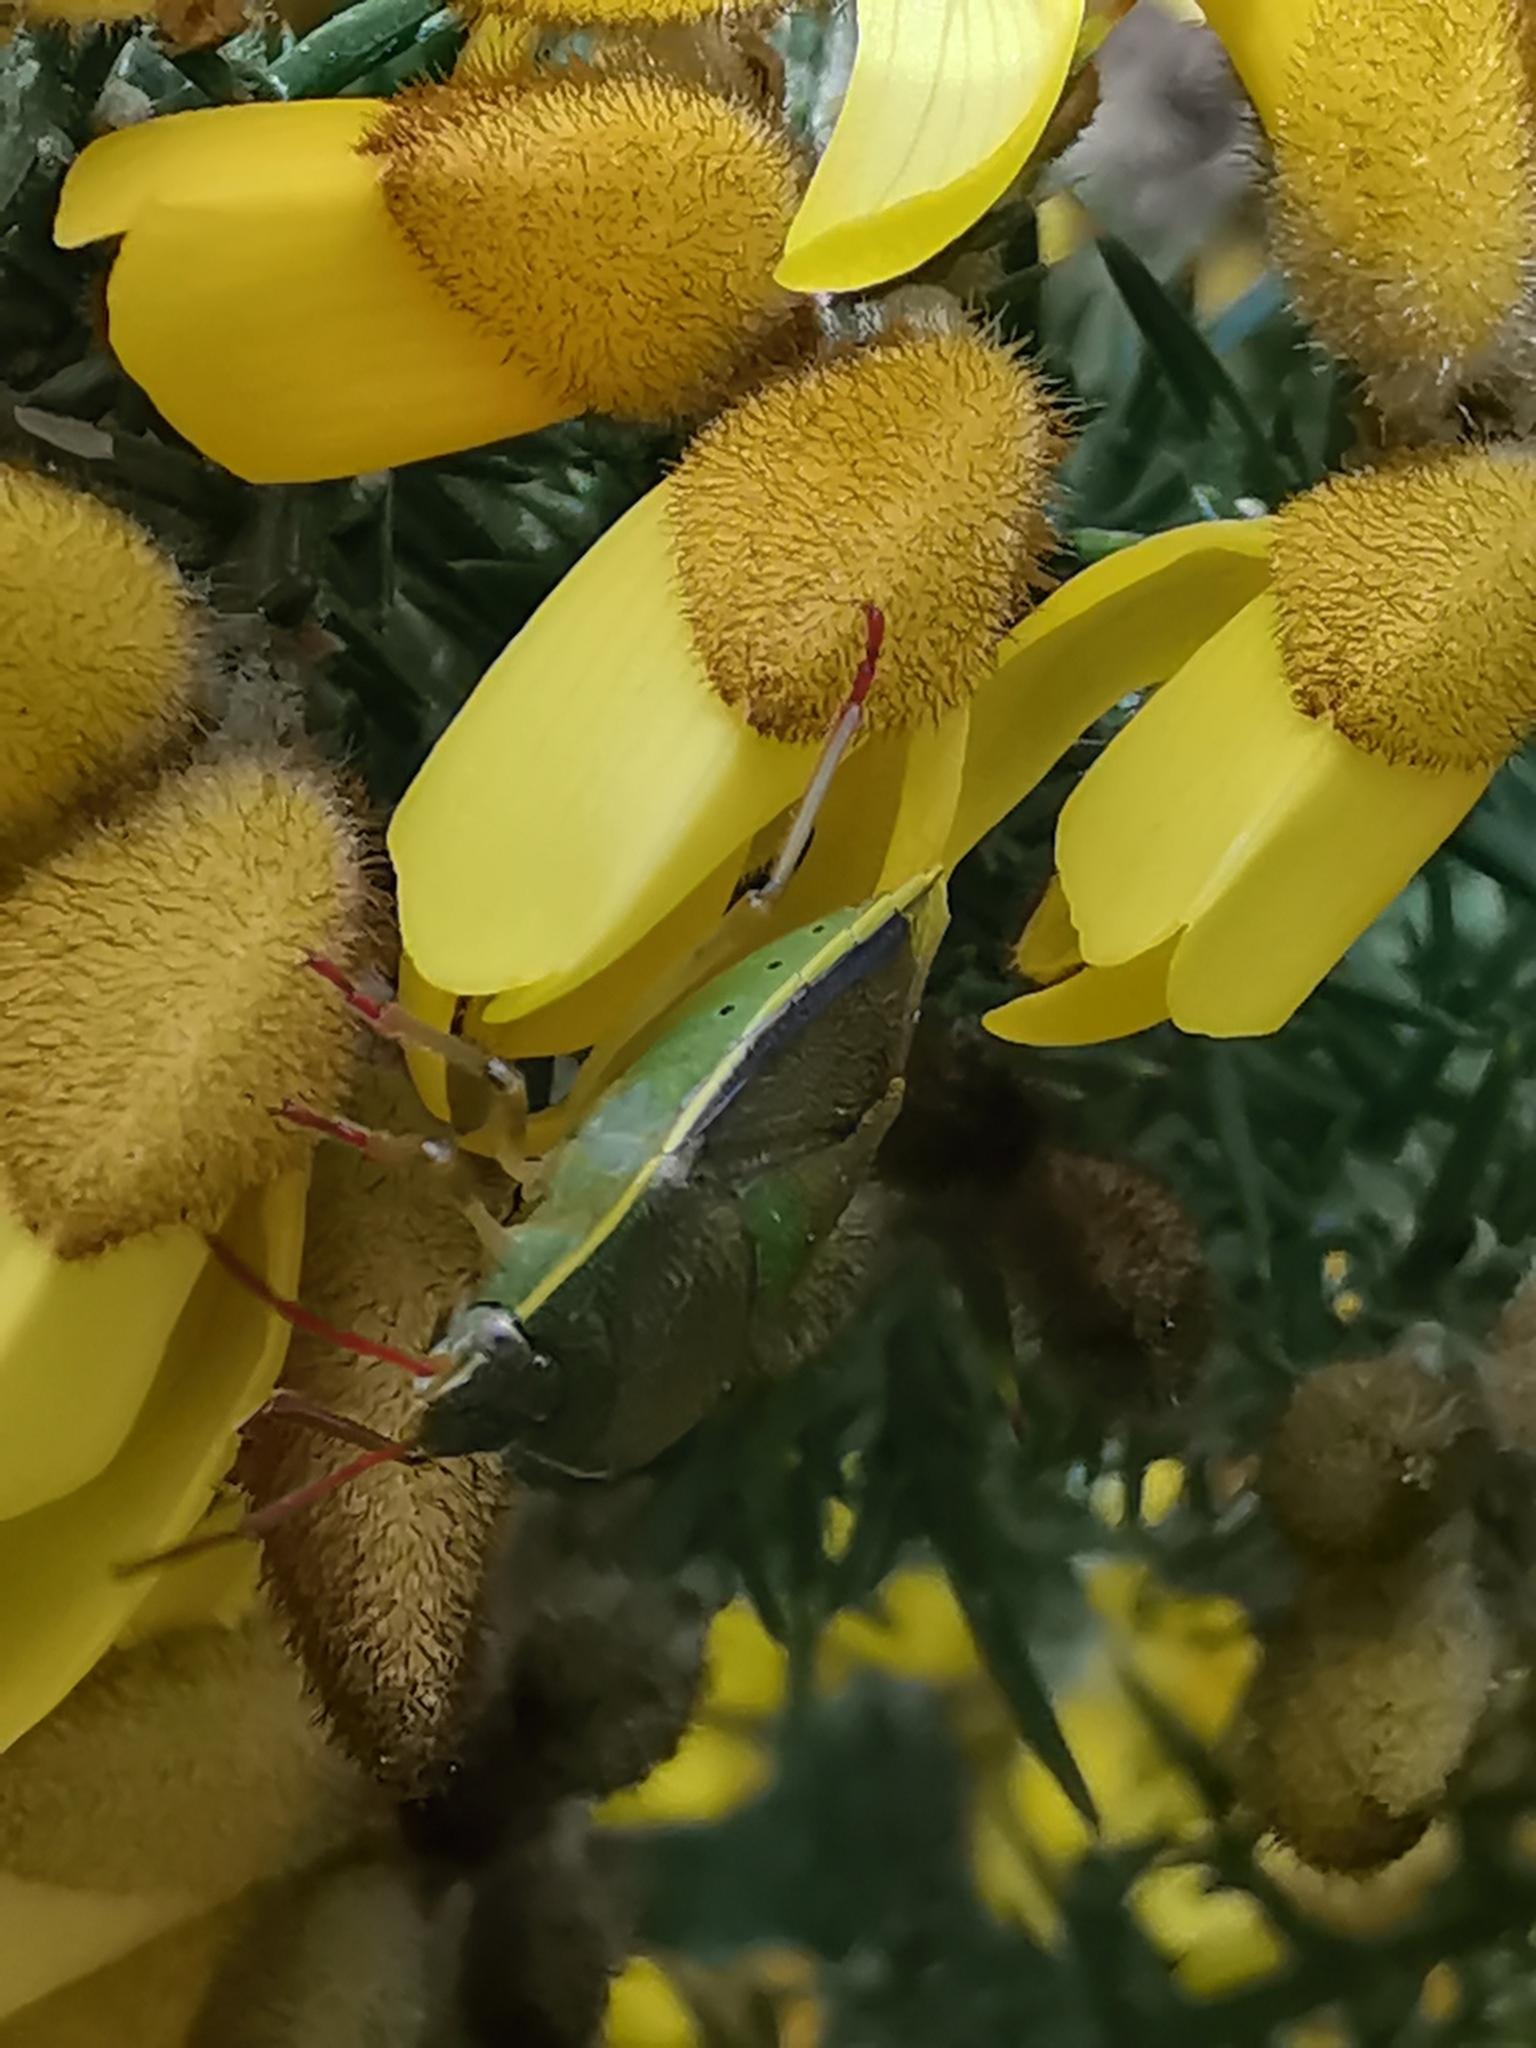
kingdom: Animalia
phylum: Arthropoda
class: Insecta
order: Hemiptera
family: Pentatomidae
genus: Piezodorus
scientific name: Piezodorus lituratus
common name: Stink bug
